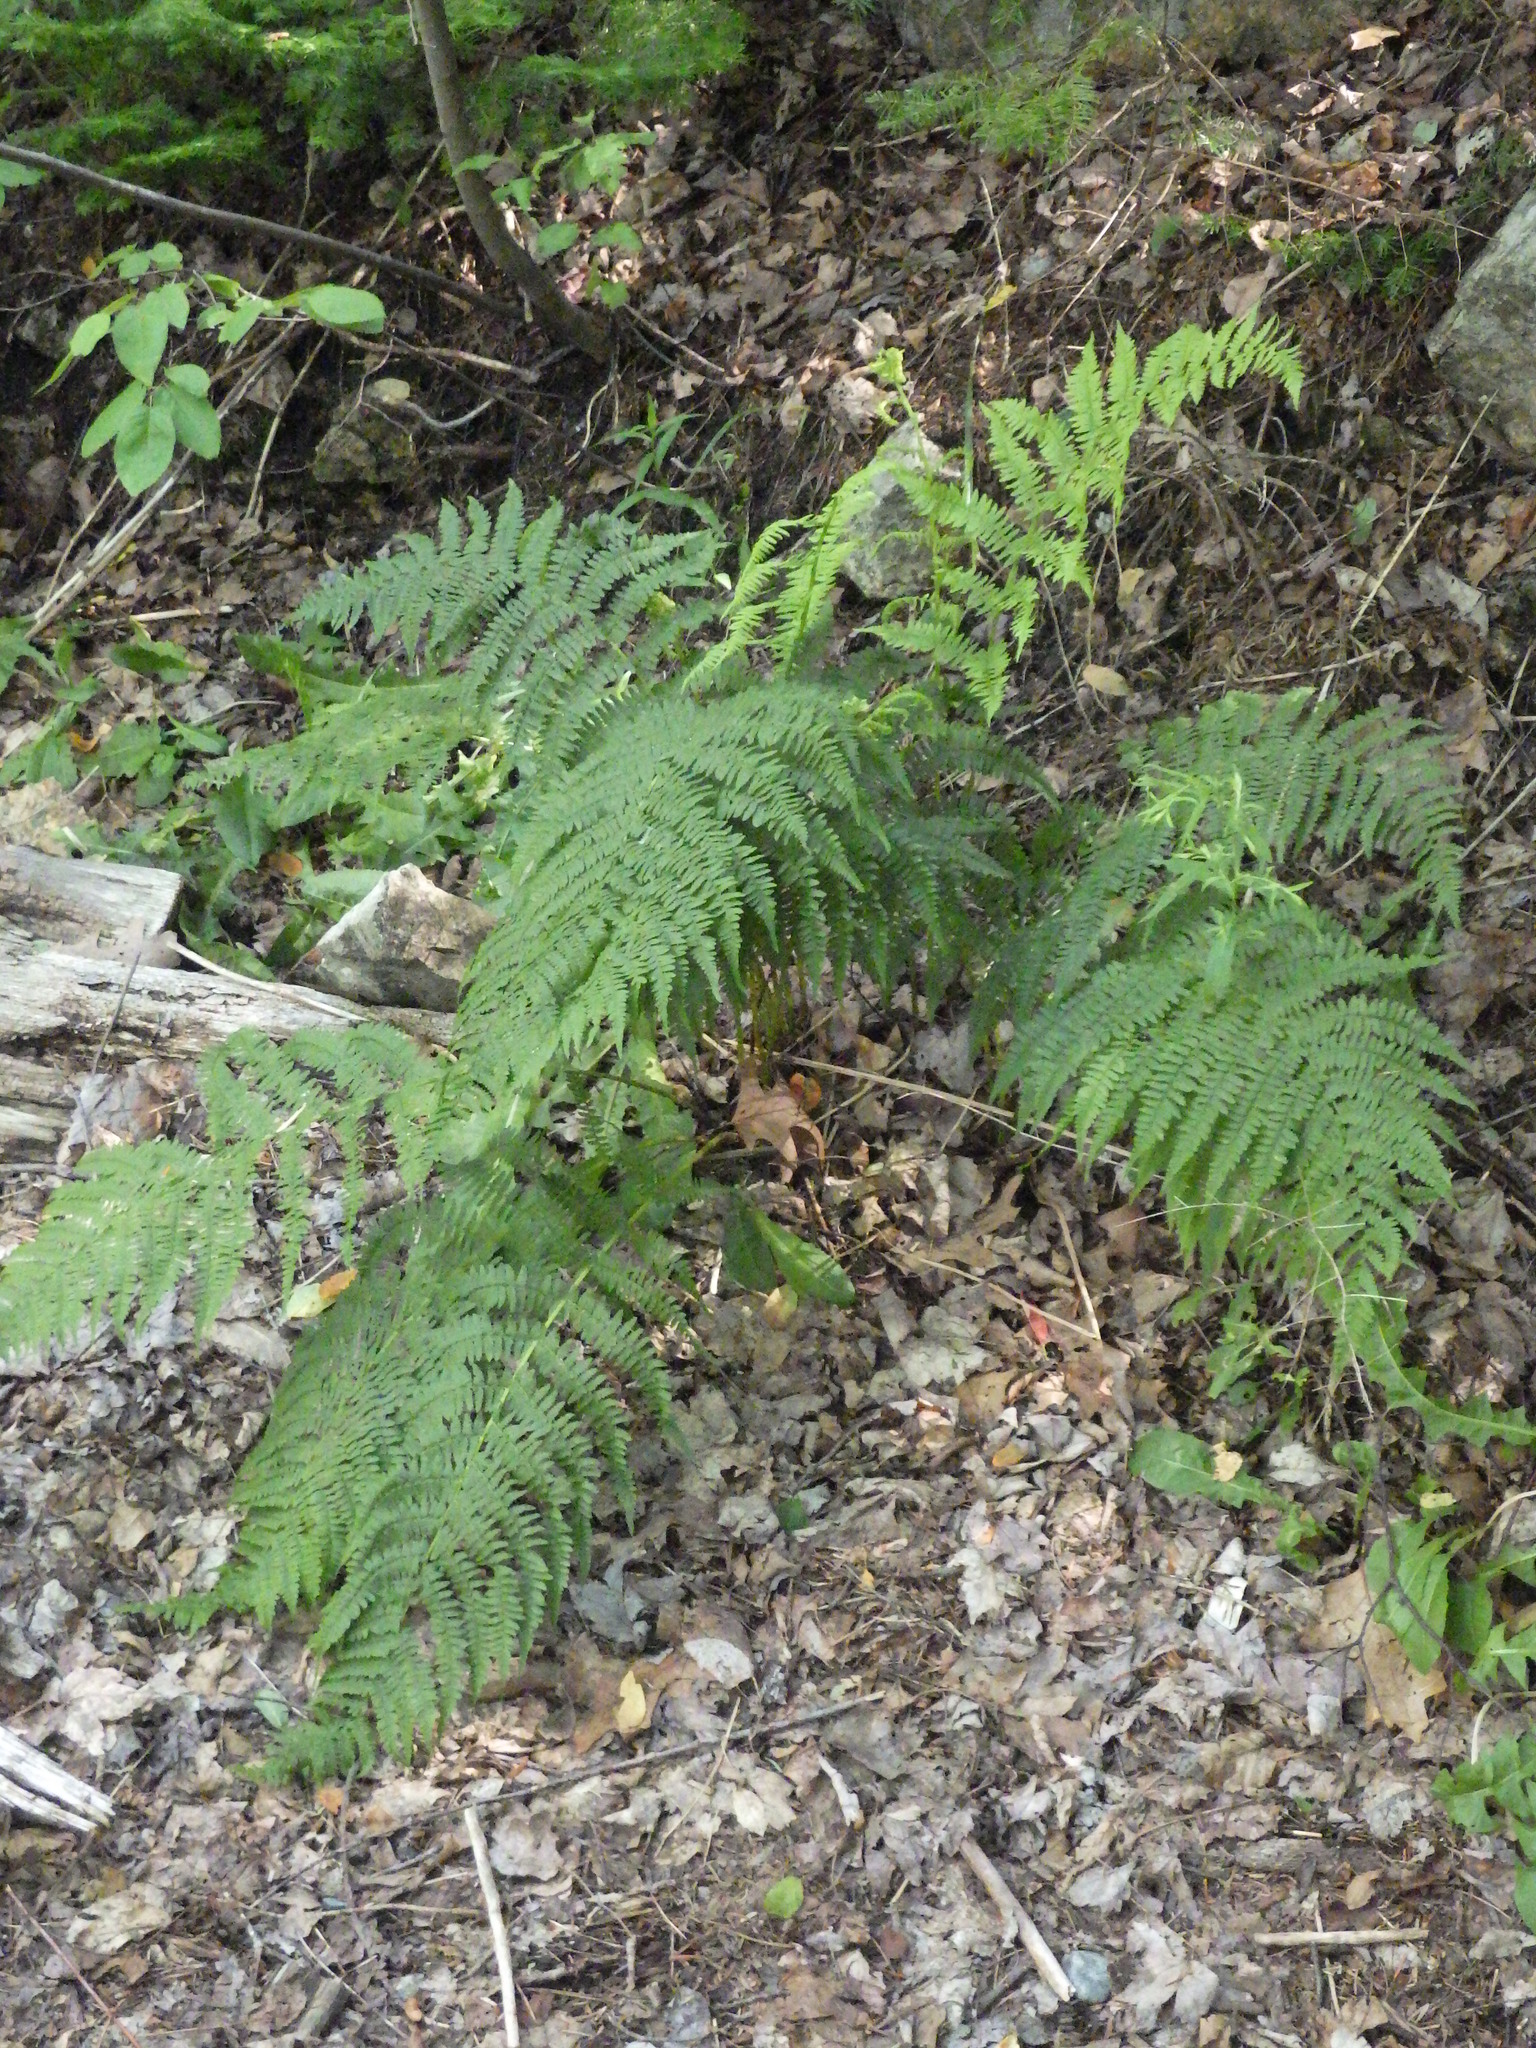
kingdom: Plantae
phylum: Tracheophyta
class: Polypodiopsida
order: Polypodiales
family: Athyriaceae
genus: Athyrium
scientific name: Athyrium angustum
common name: Northern lady fern
